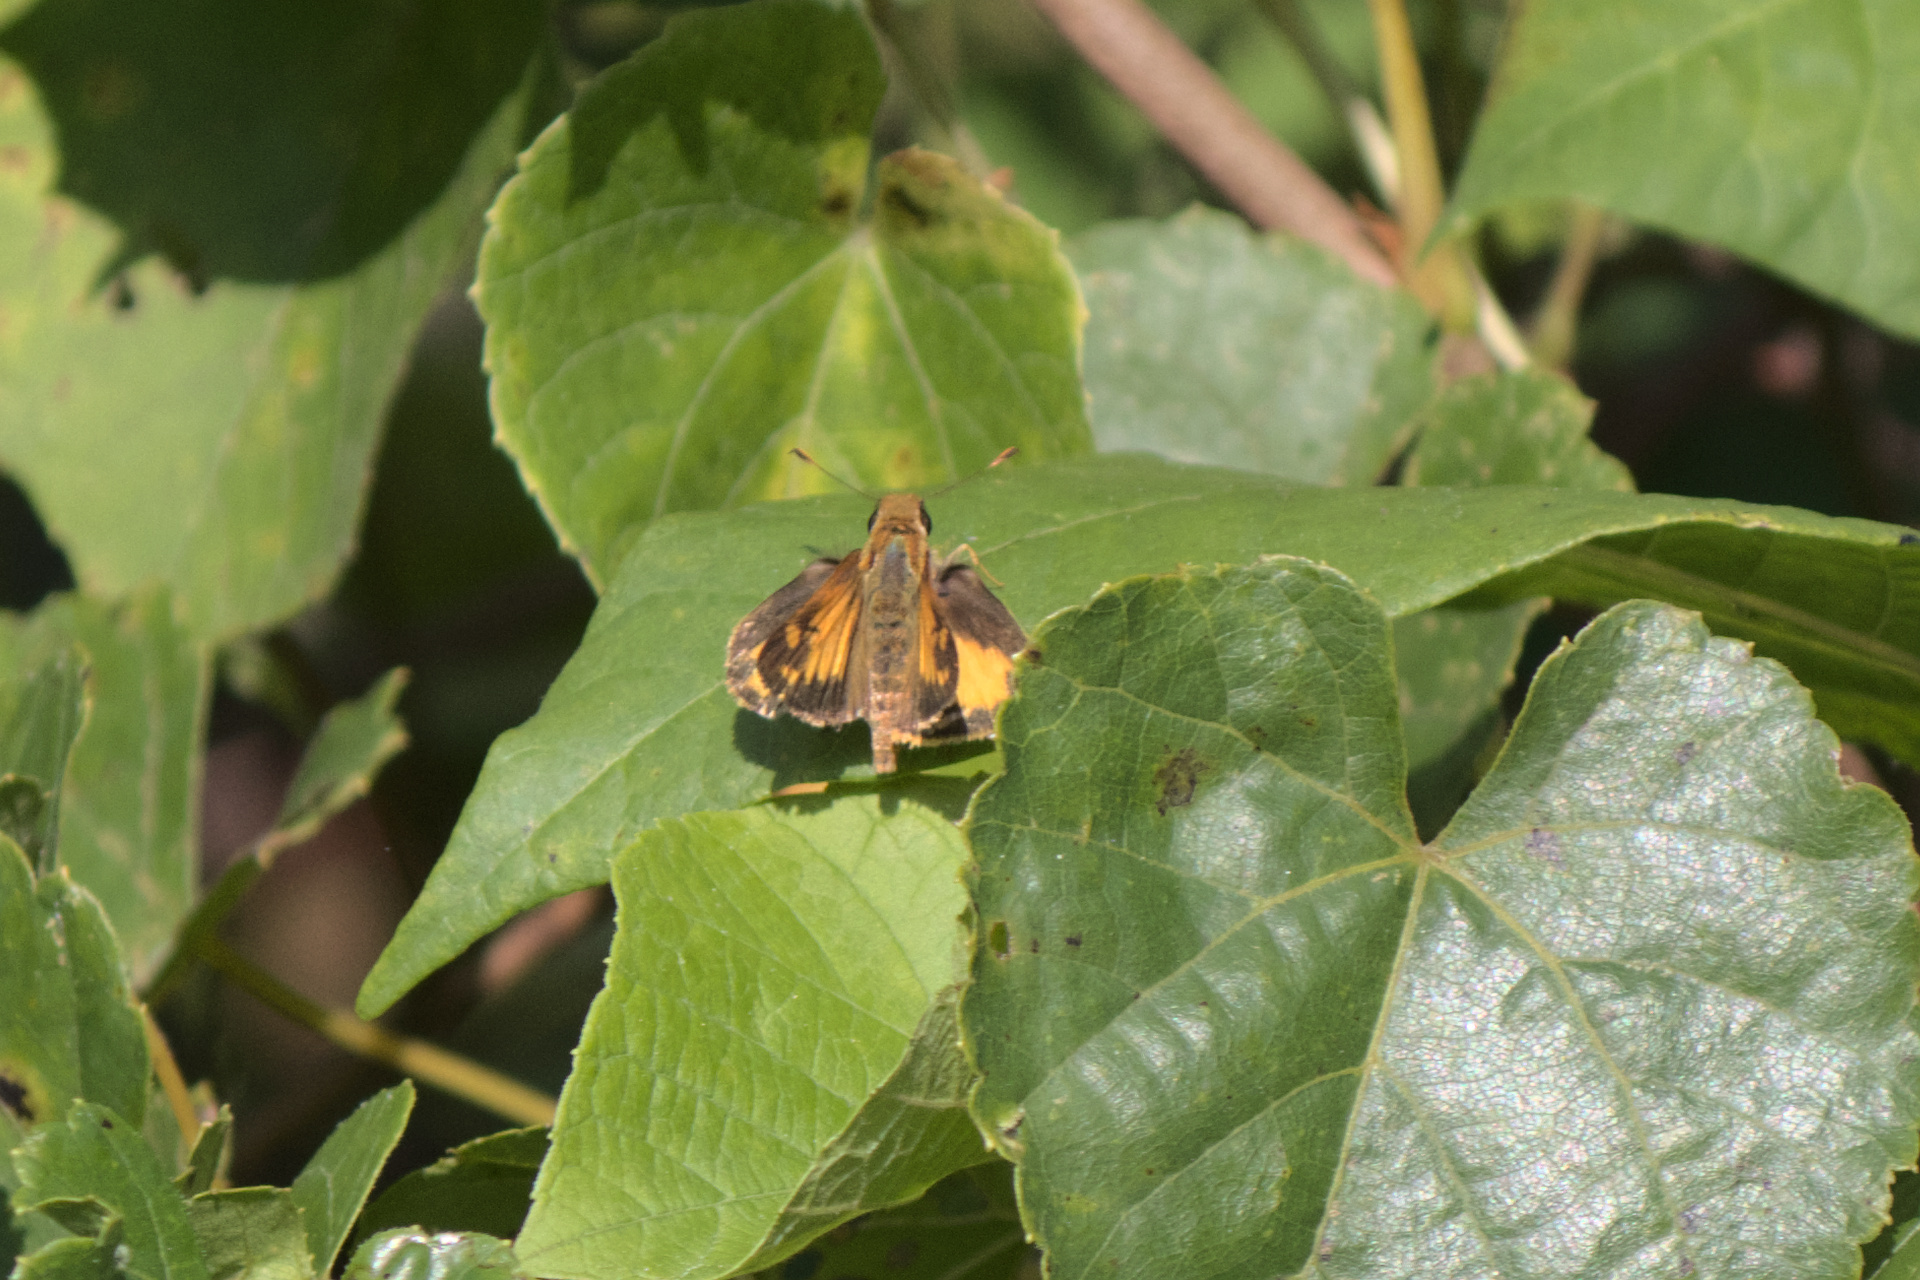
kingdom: Animalia
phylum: Arthropoda
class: Insecta
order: Lepidoptera
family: Hesperiidae
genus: Lon
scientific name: Lon zabulon
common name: Zabulon skipper
